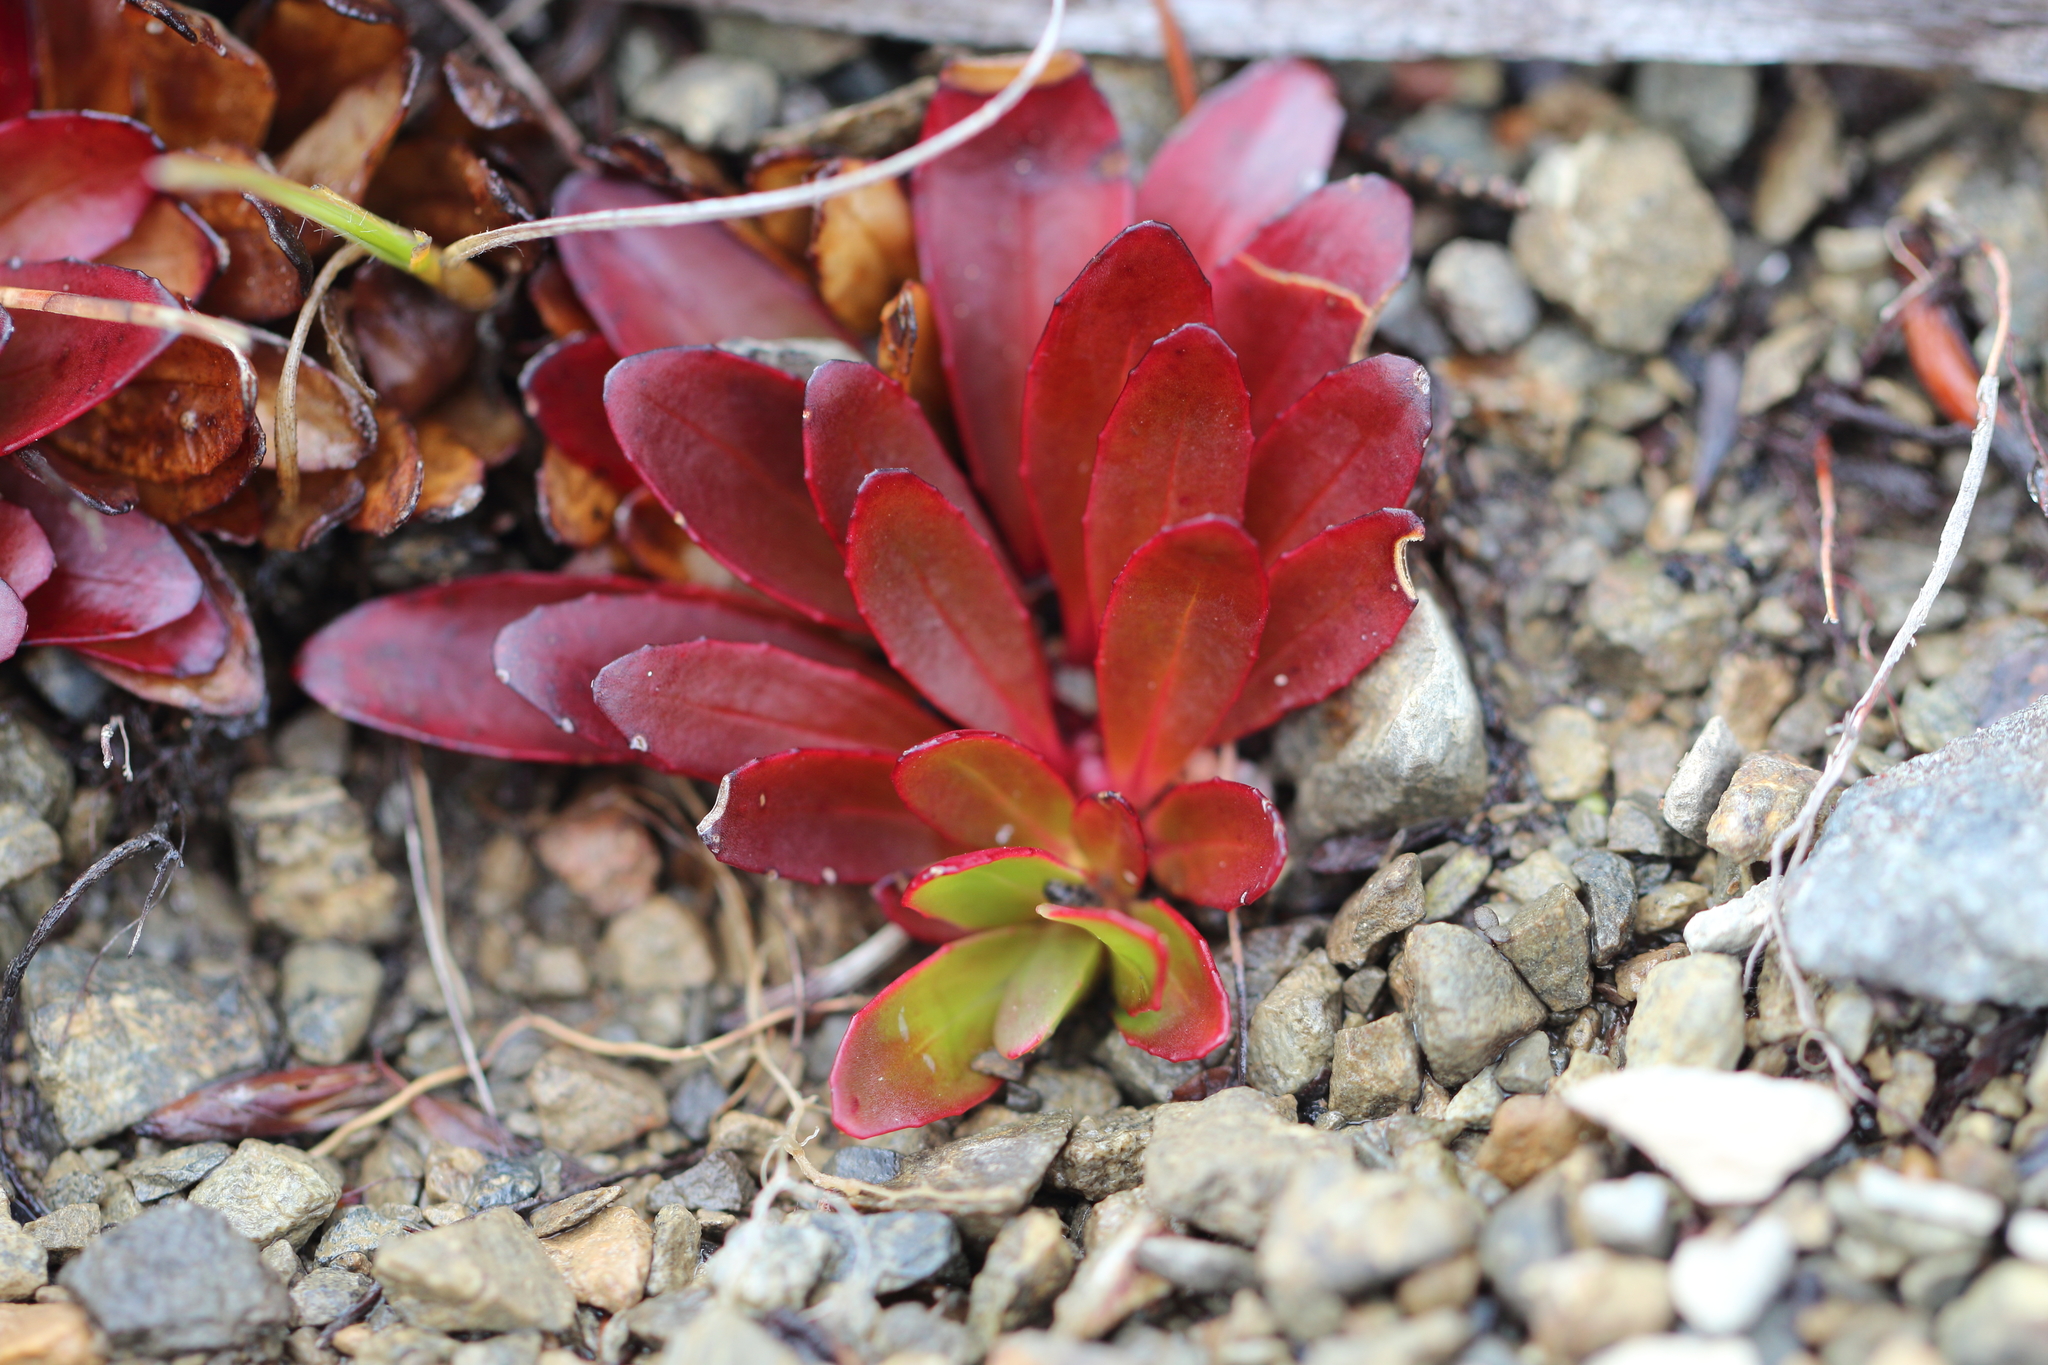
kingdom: Plantae
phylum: Tracheophyta
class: Magnoliopsida
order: Myrtales
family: Onagraceae
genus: Epilobium
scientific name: Epilobium crassum
